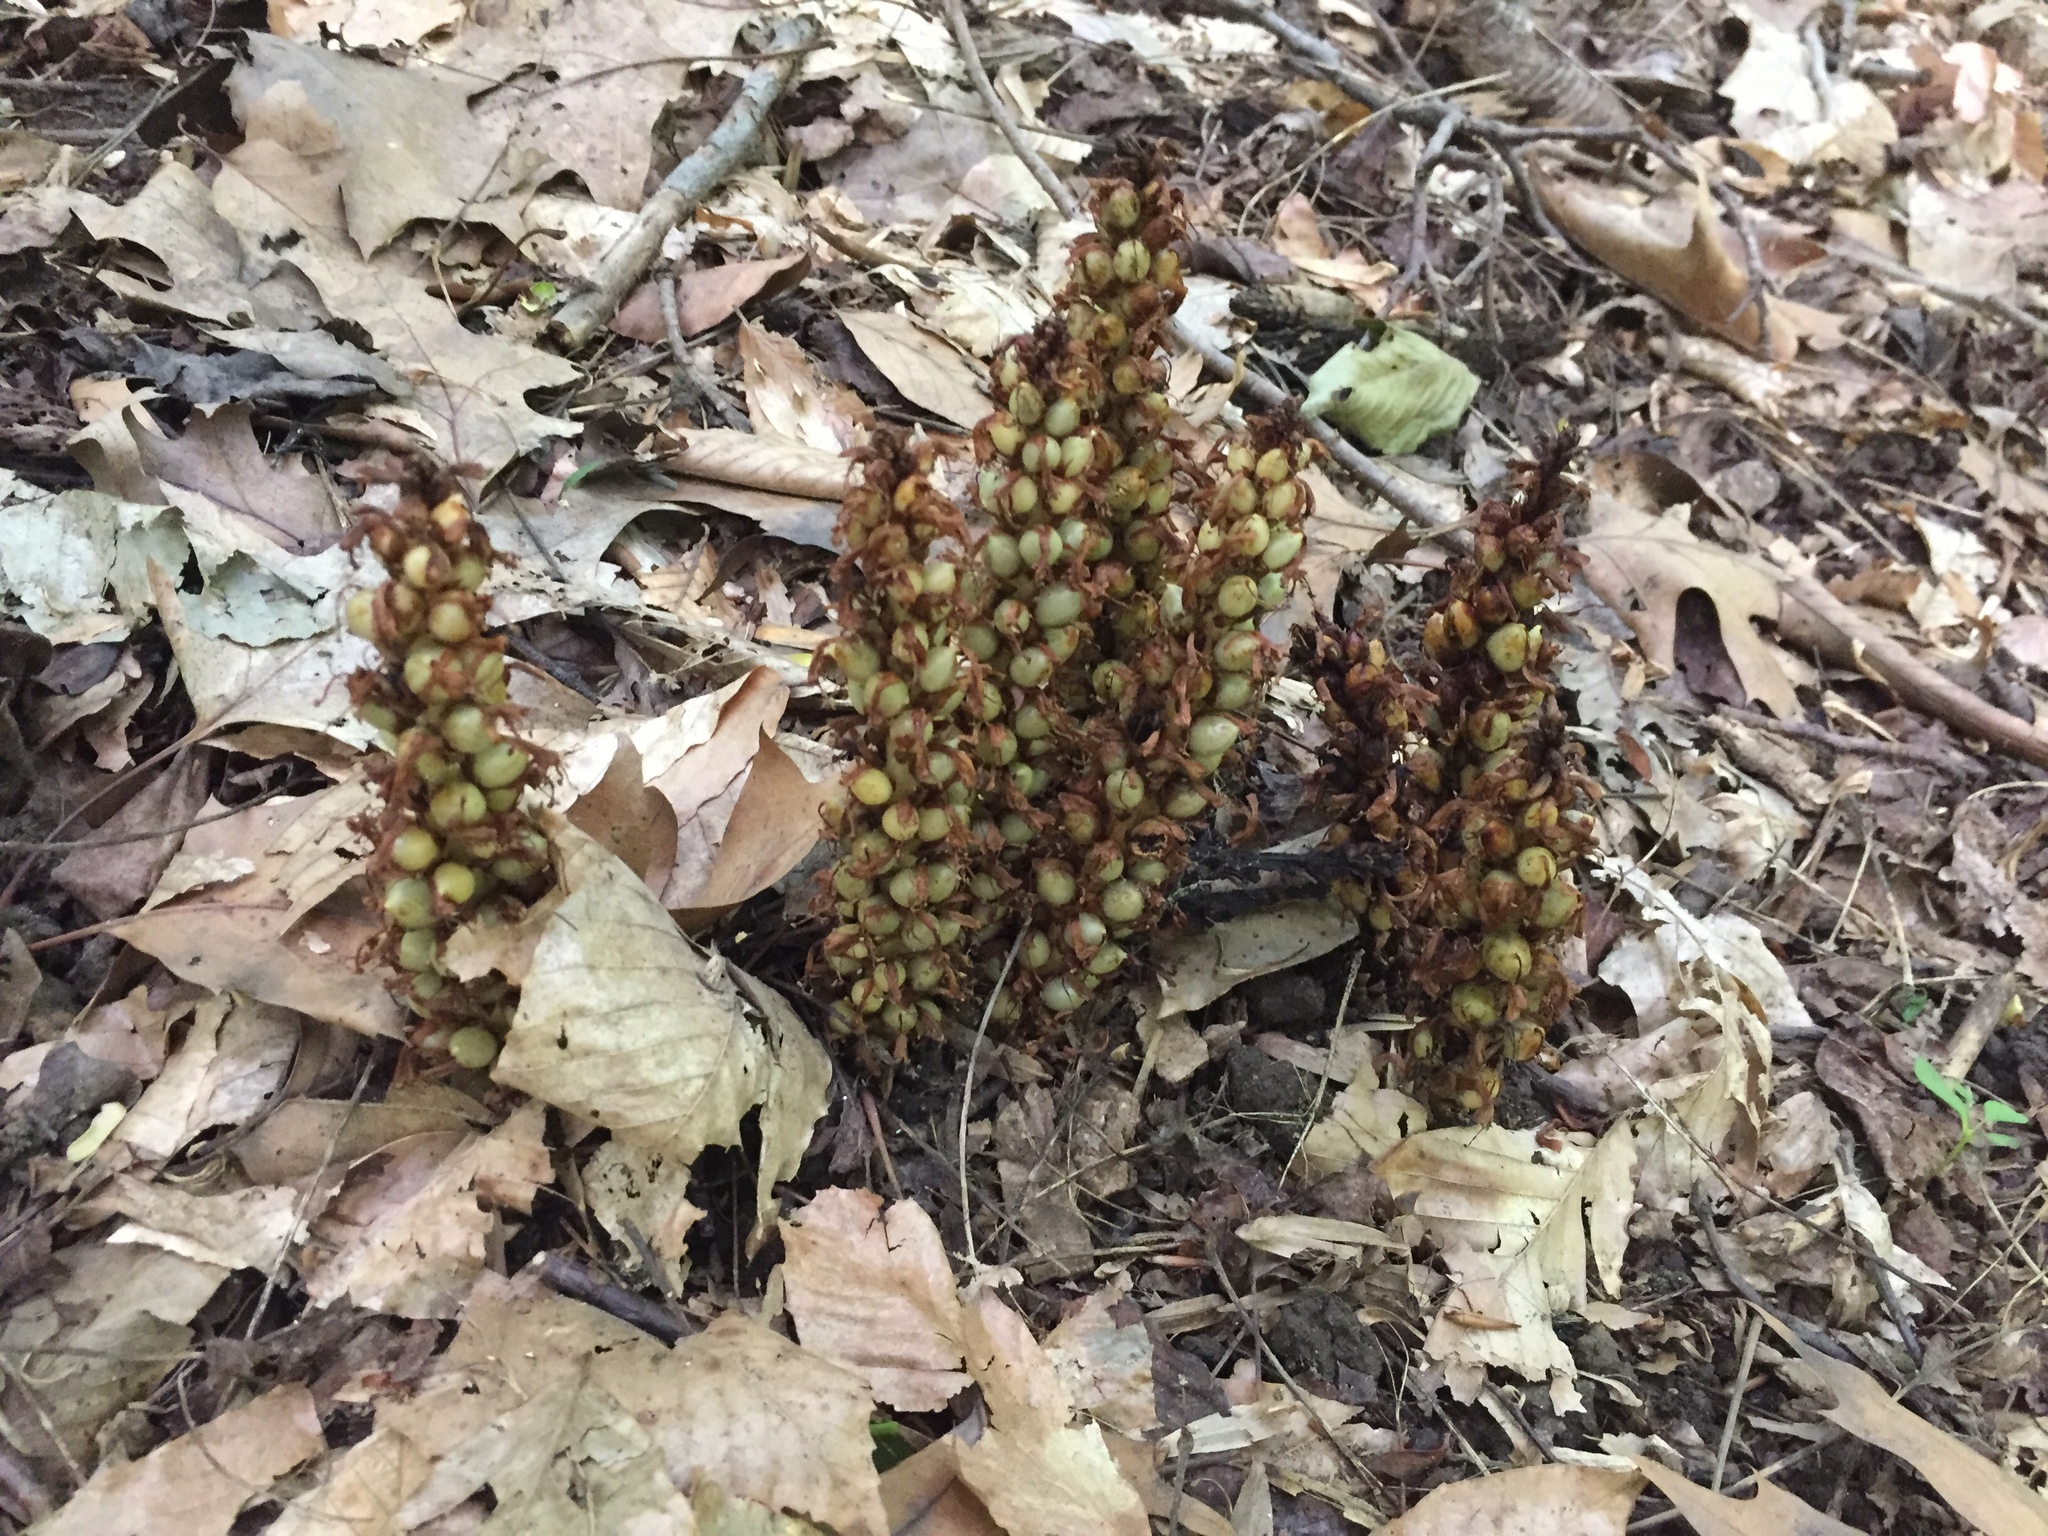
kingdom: Plantae
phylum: Tracheophyta
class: Magnoliopsida
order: Lamiales
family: Orobanchaceae
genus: Conopholis
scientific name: Conopholis americana
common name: American cancer-root
